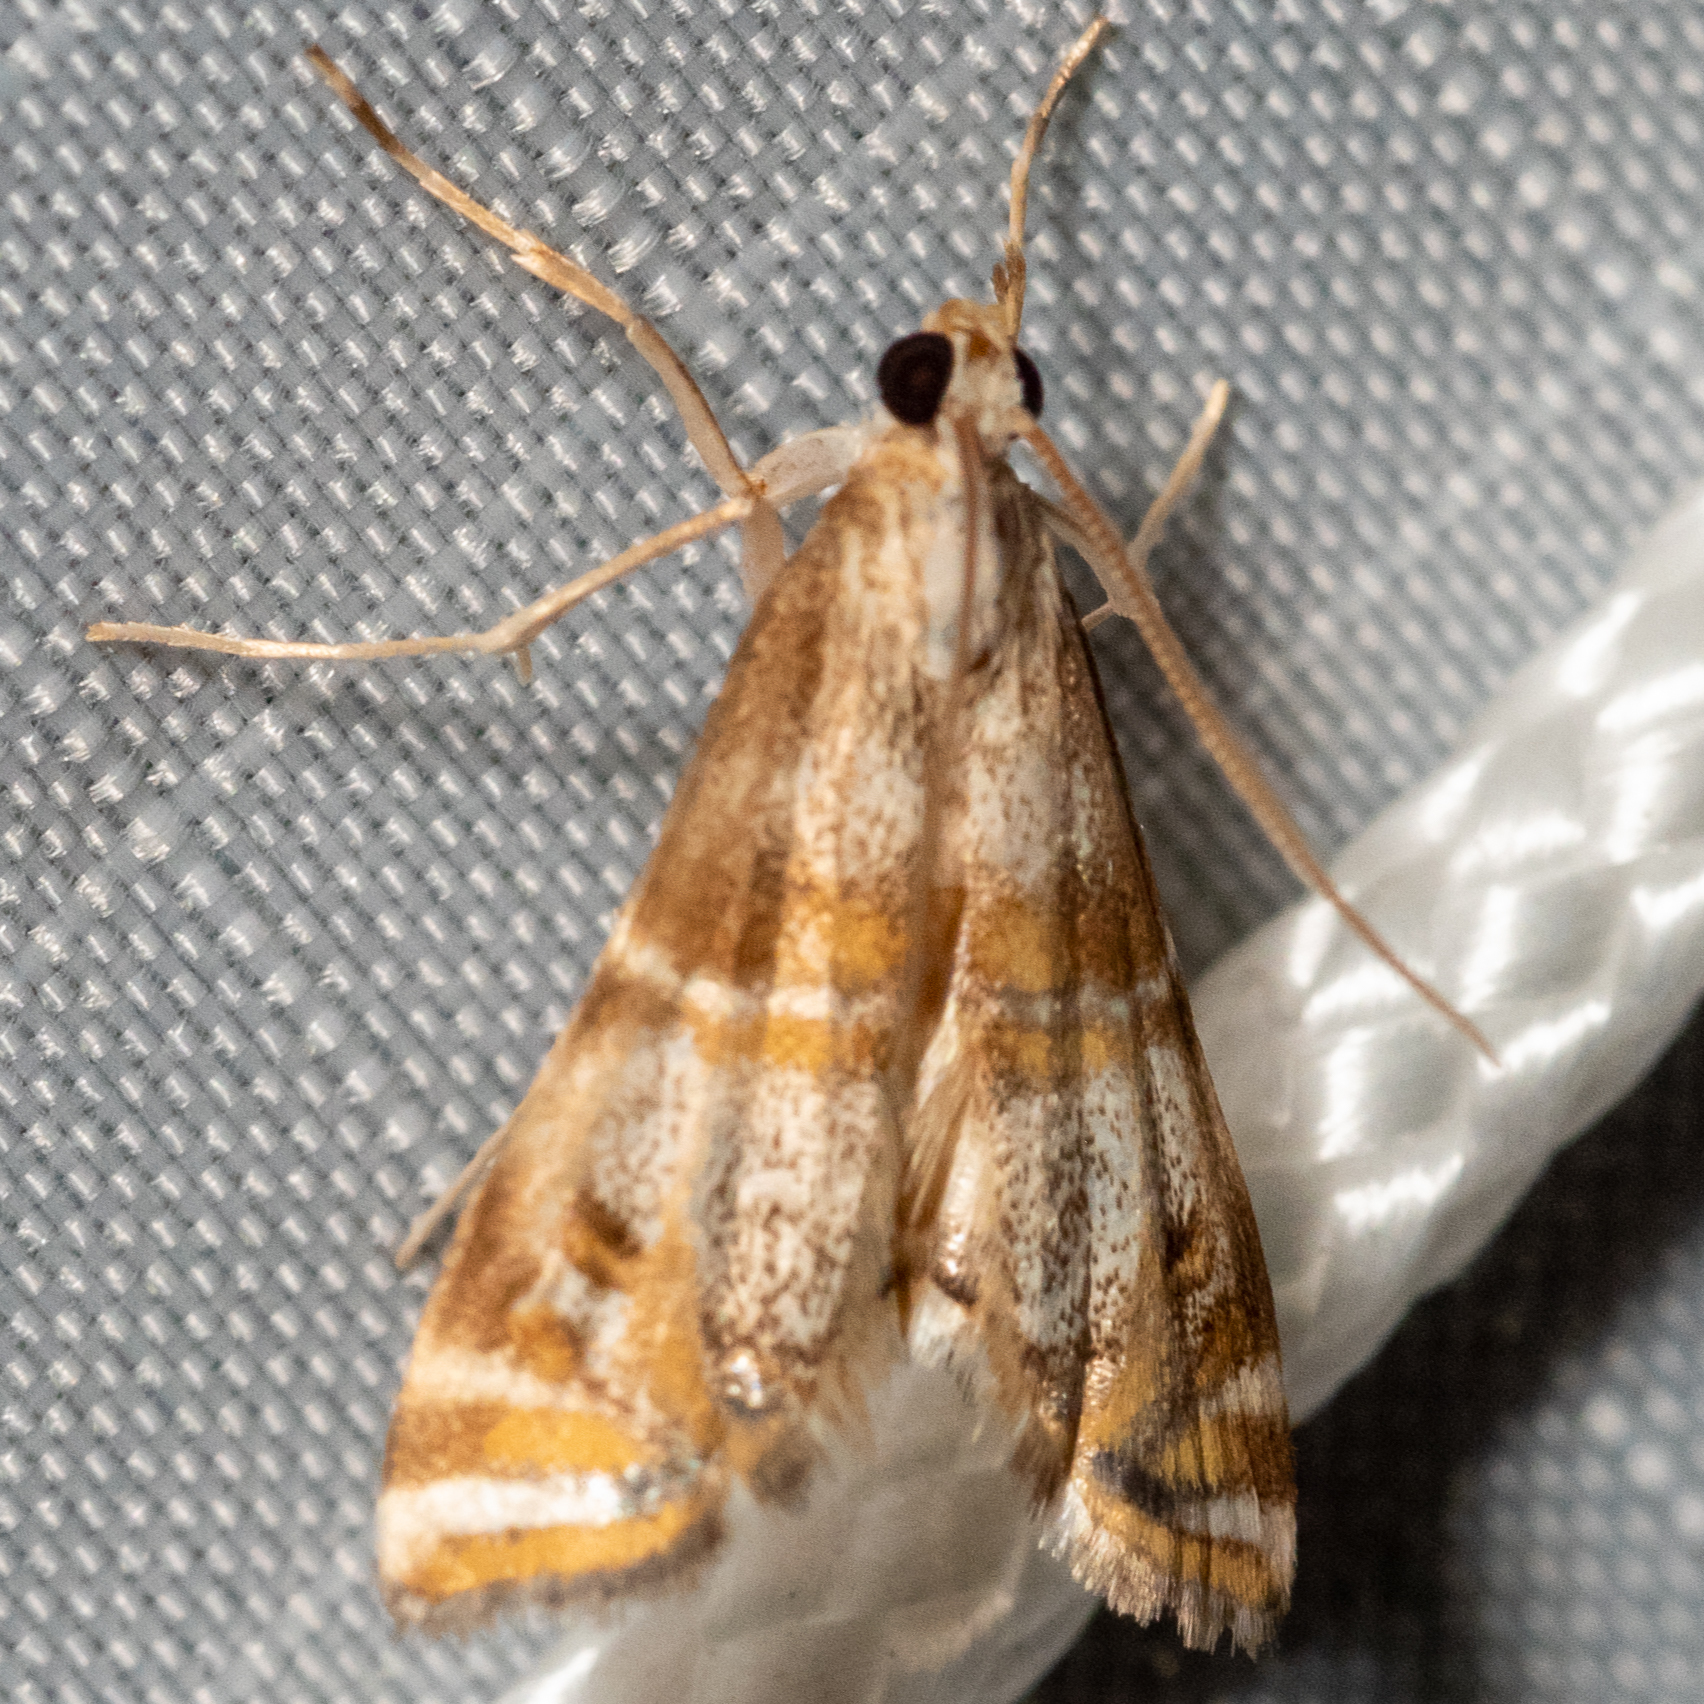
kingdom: Animalia
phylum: Arthropoda
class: Insecta
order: Lepidoptera
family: Crambidae
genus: Petrophila
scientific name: Petrophila bifascialis
